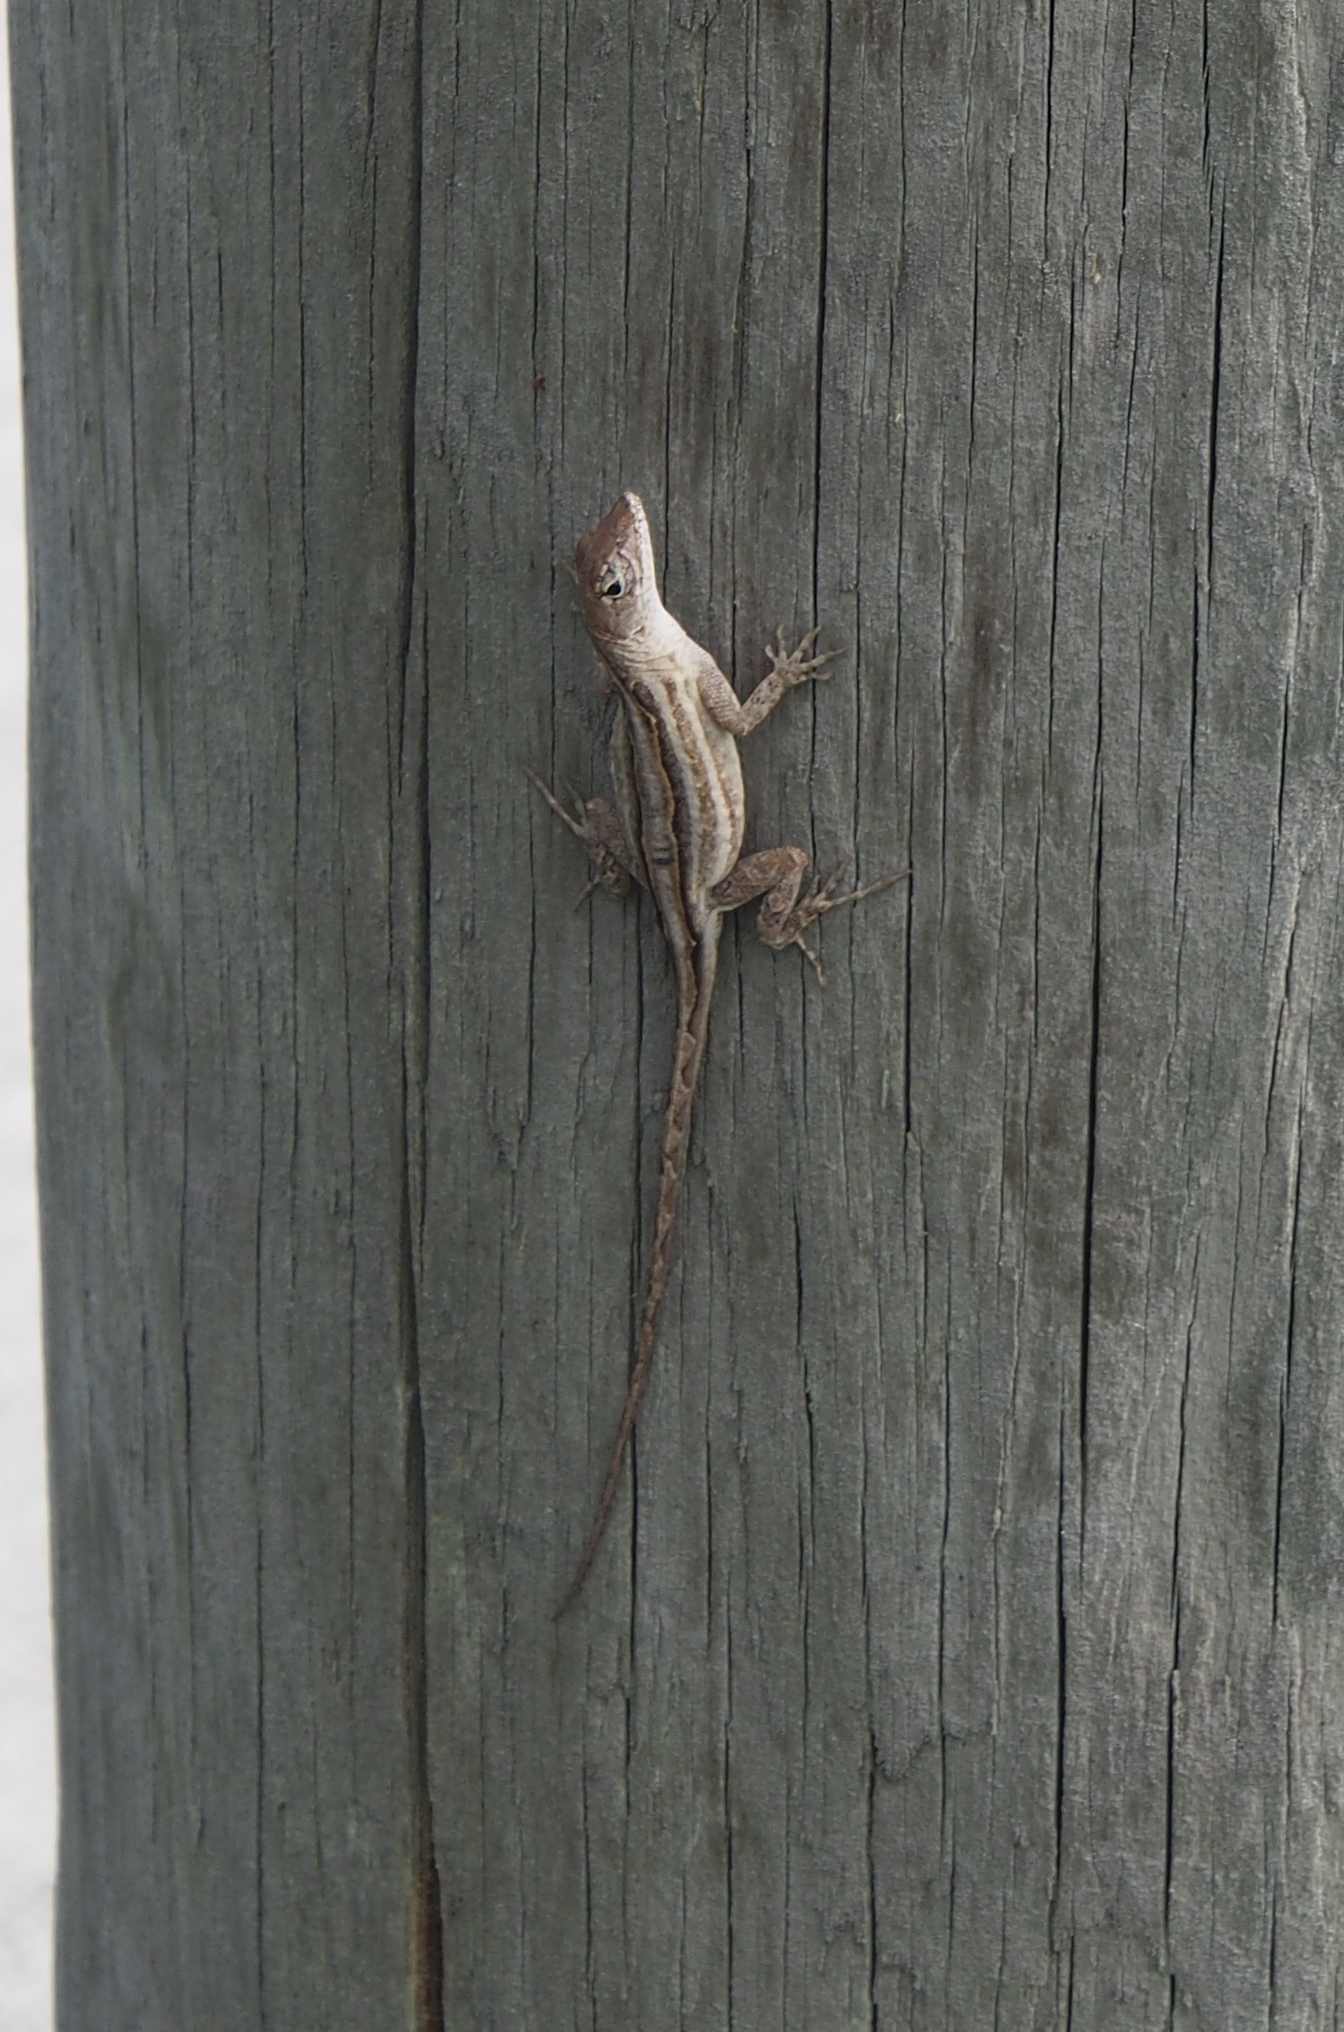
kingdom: Animalia
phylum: Chordata
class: Squamata
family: Dactyloidae
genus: Anolis
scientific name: Anolis sagrei
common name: Brown anole
